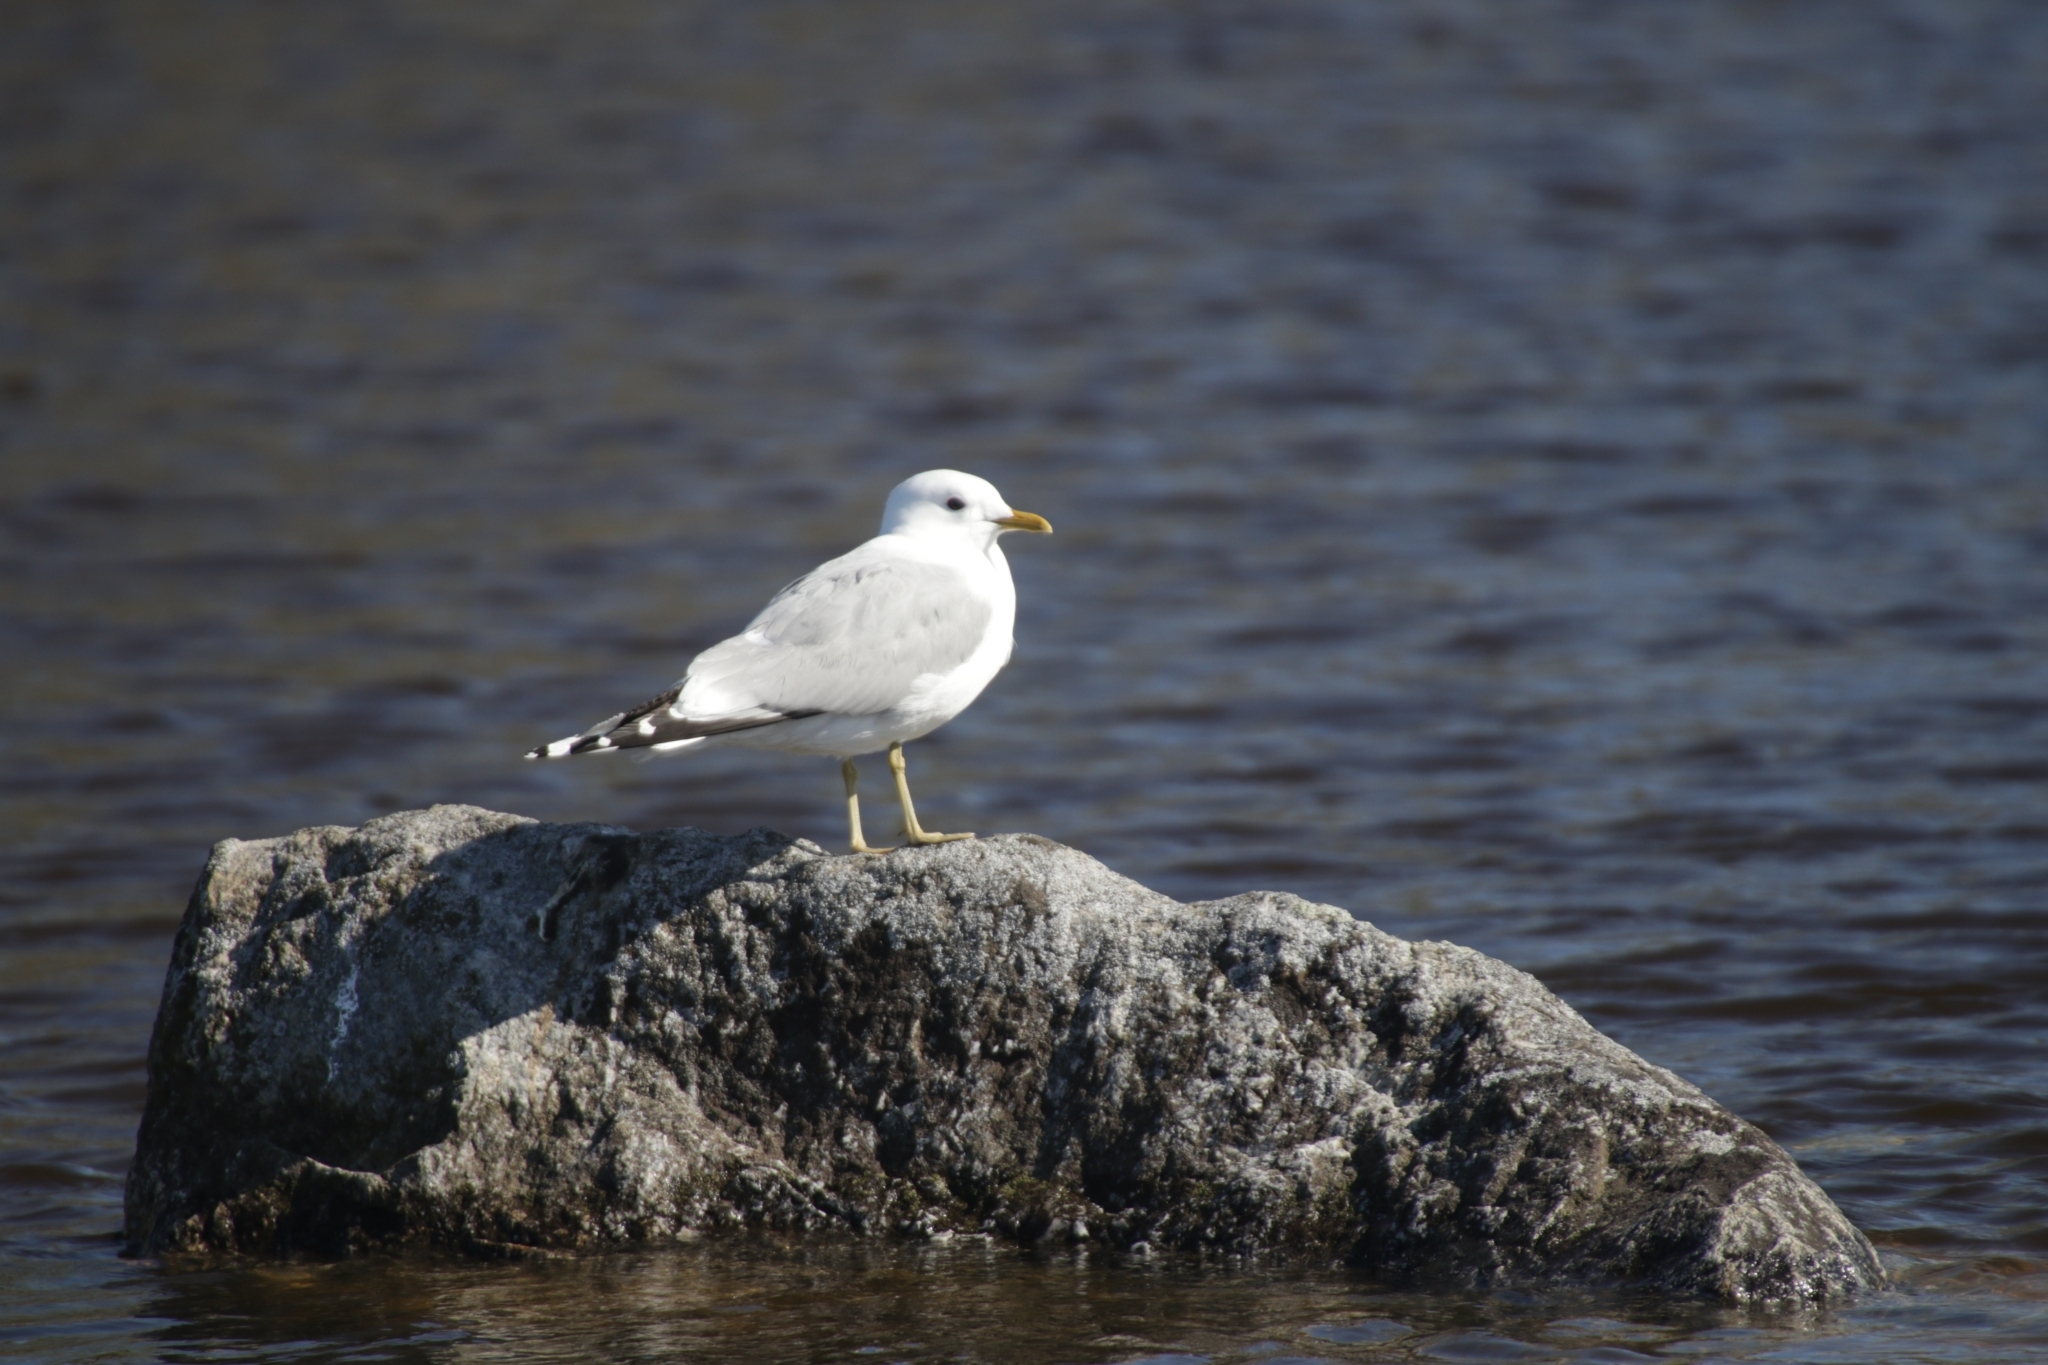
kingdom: Animalia
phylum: Chordata
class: Aves
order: Charadriiformes
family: Laridae
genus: Larus
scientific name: Larus canus
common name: Mew gull
